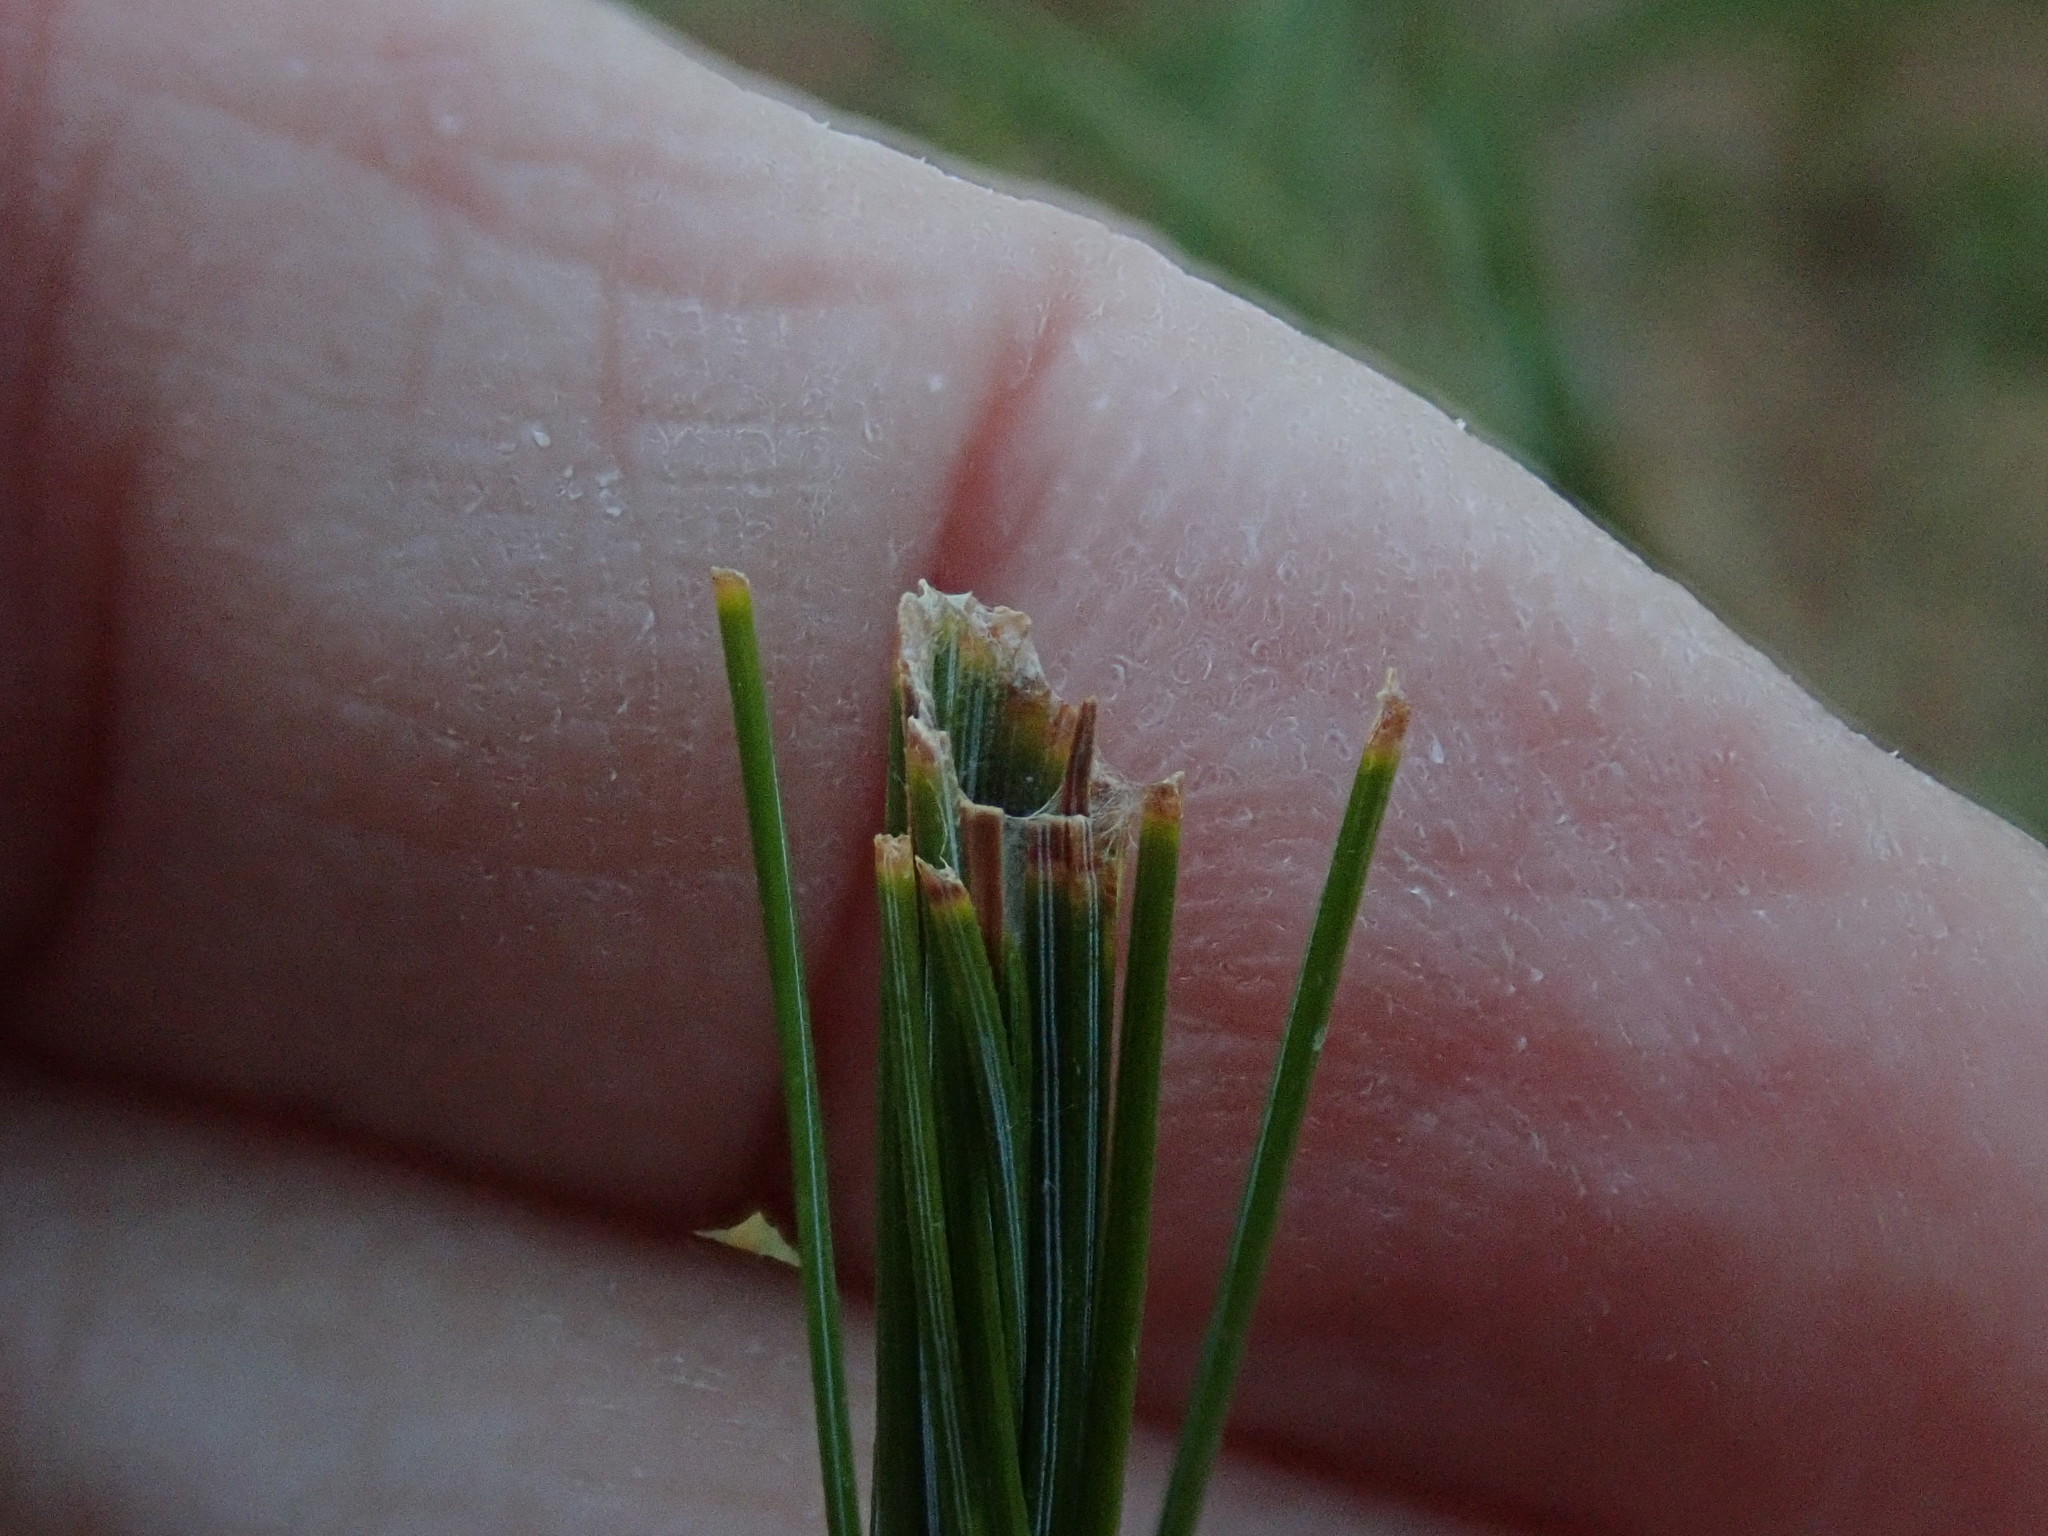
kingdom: Animalia
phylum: Arthropoda
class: Insecta
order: Lepidoptera
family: Tortricidae
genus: Argyrotaenia
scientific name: Argyrotaenia pinatubana
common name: Pine tube moth
